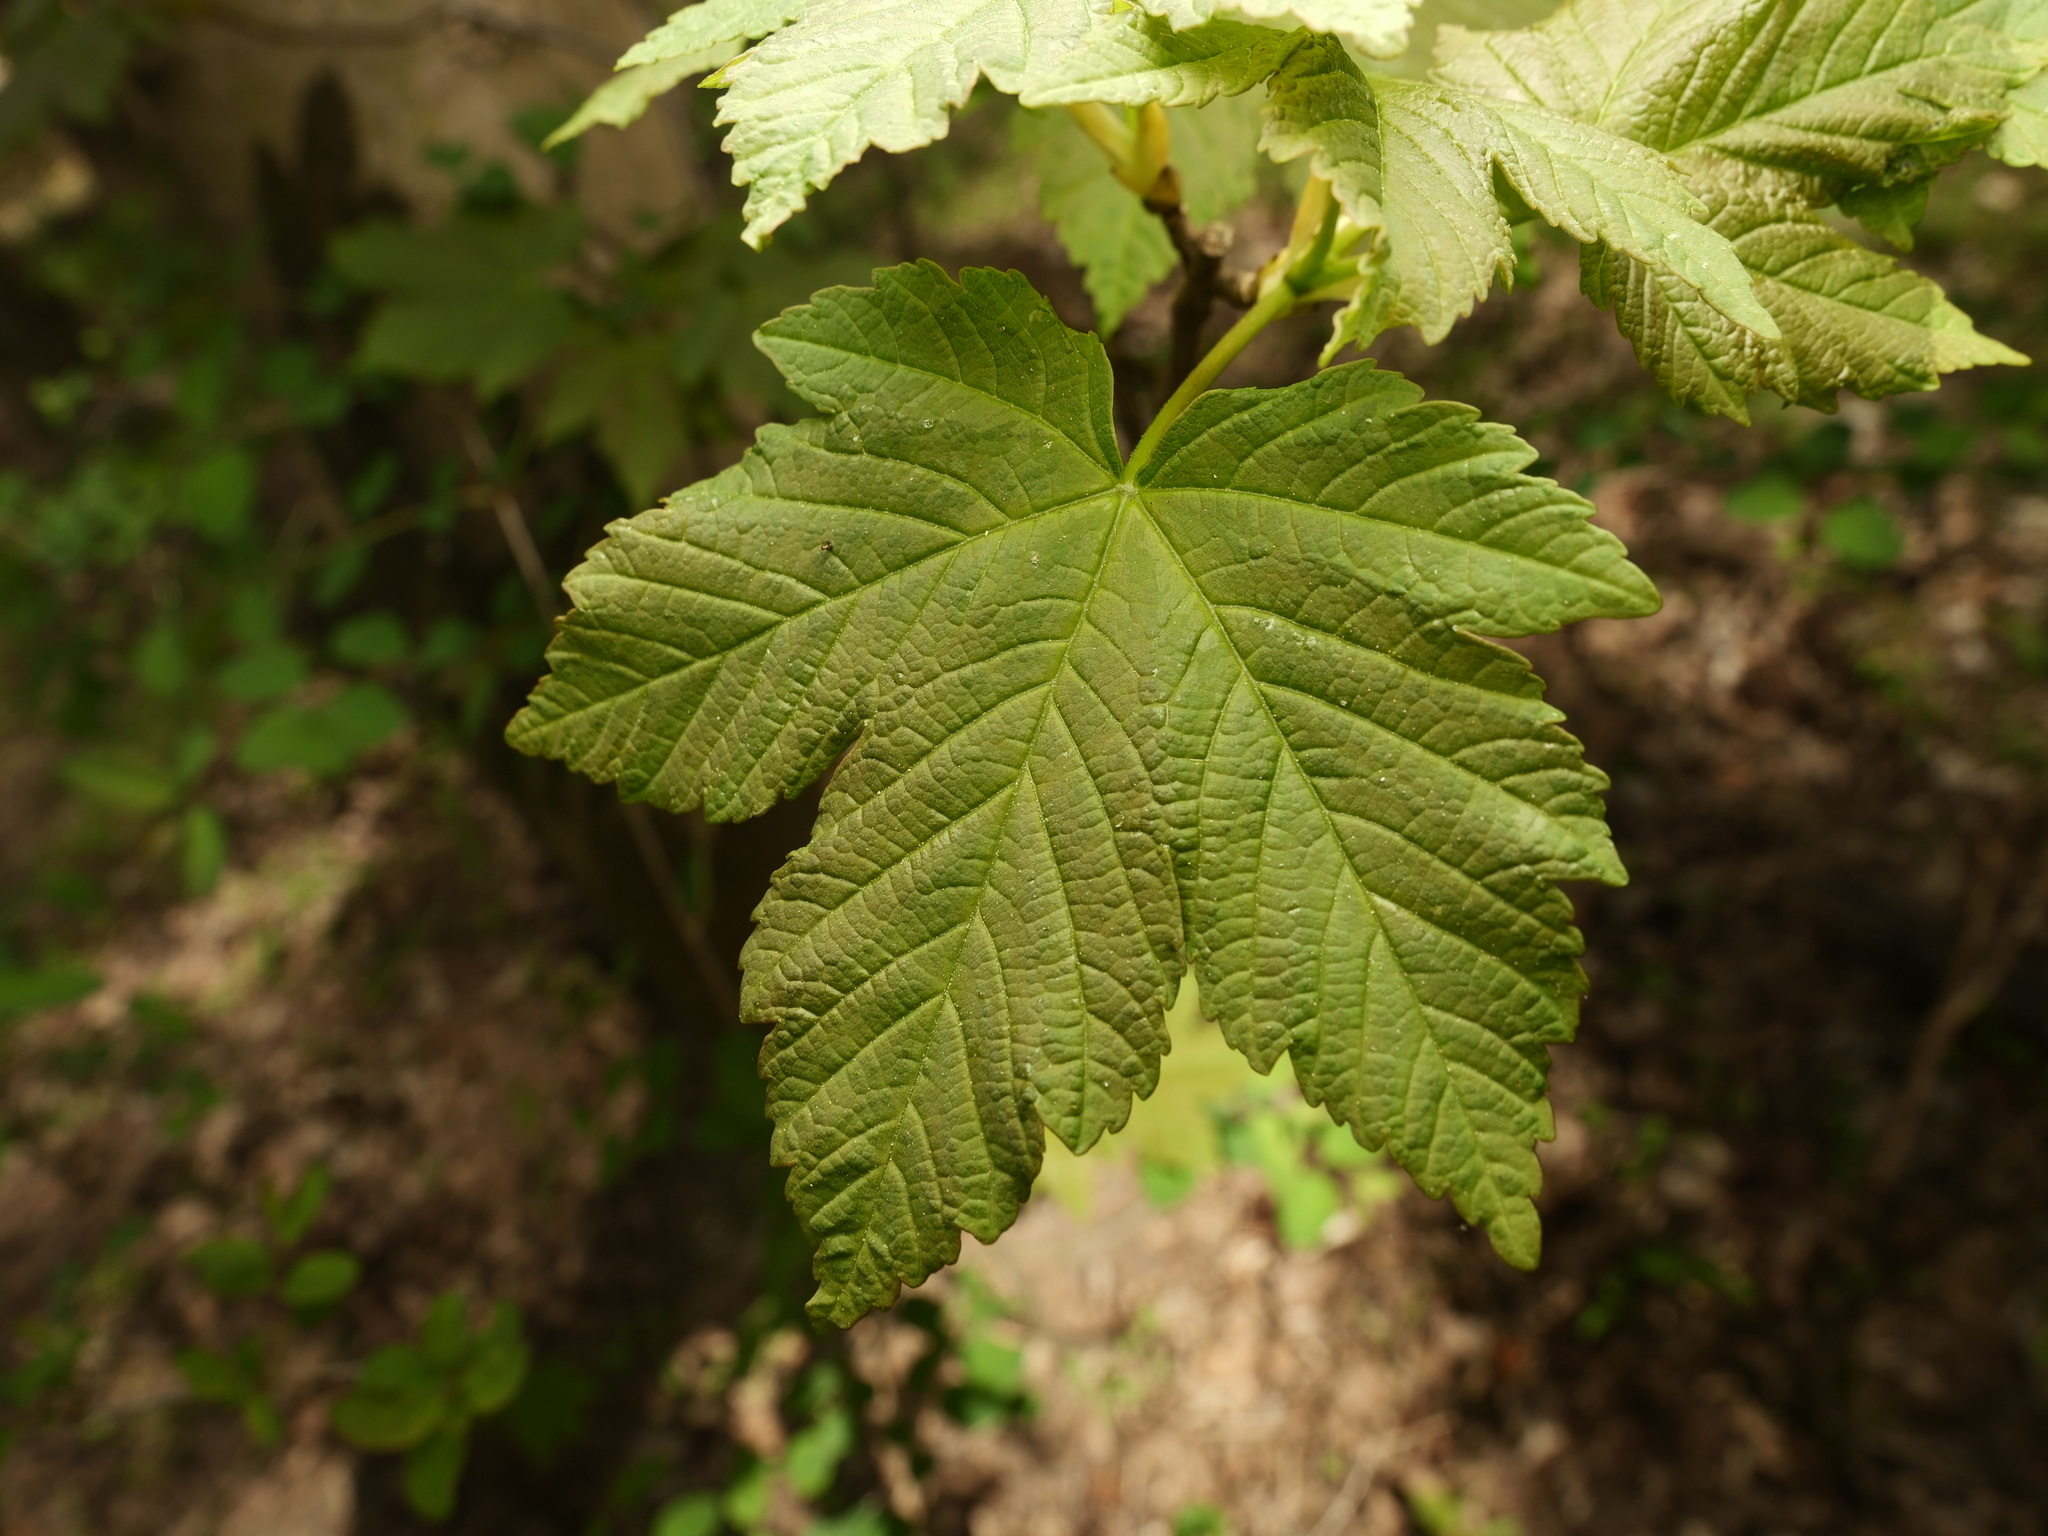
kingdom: Plantae
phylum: Tracheophyta
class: Magnoliopsida
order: Sapindales
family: Sapindaceae
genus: Acer
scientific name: Acer pseudoplatanus
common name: Sycamore
